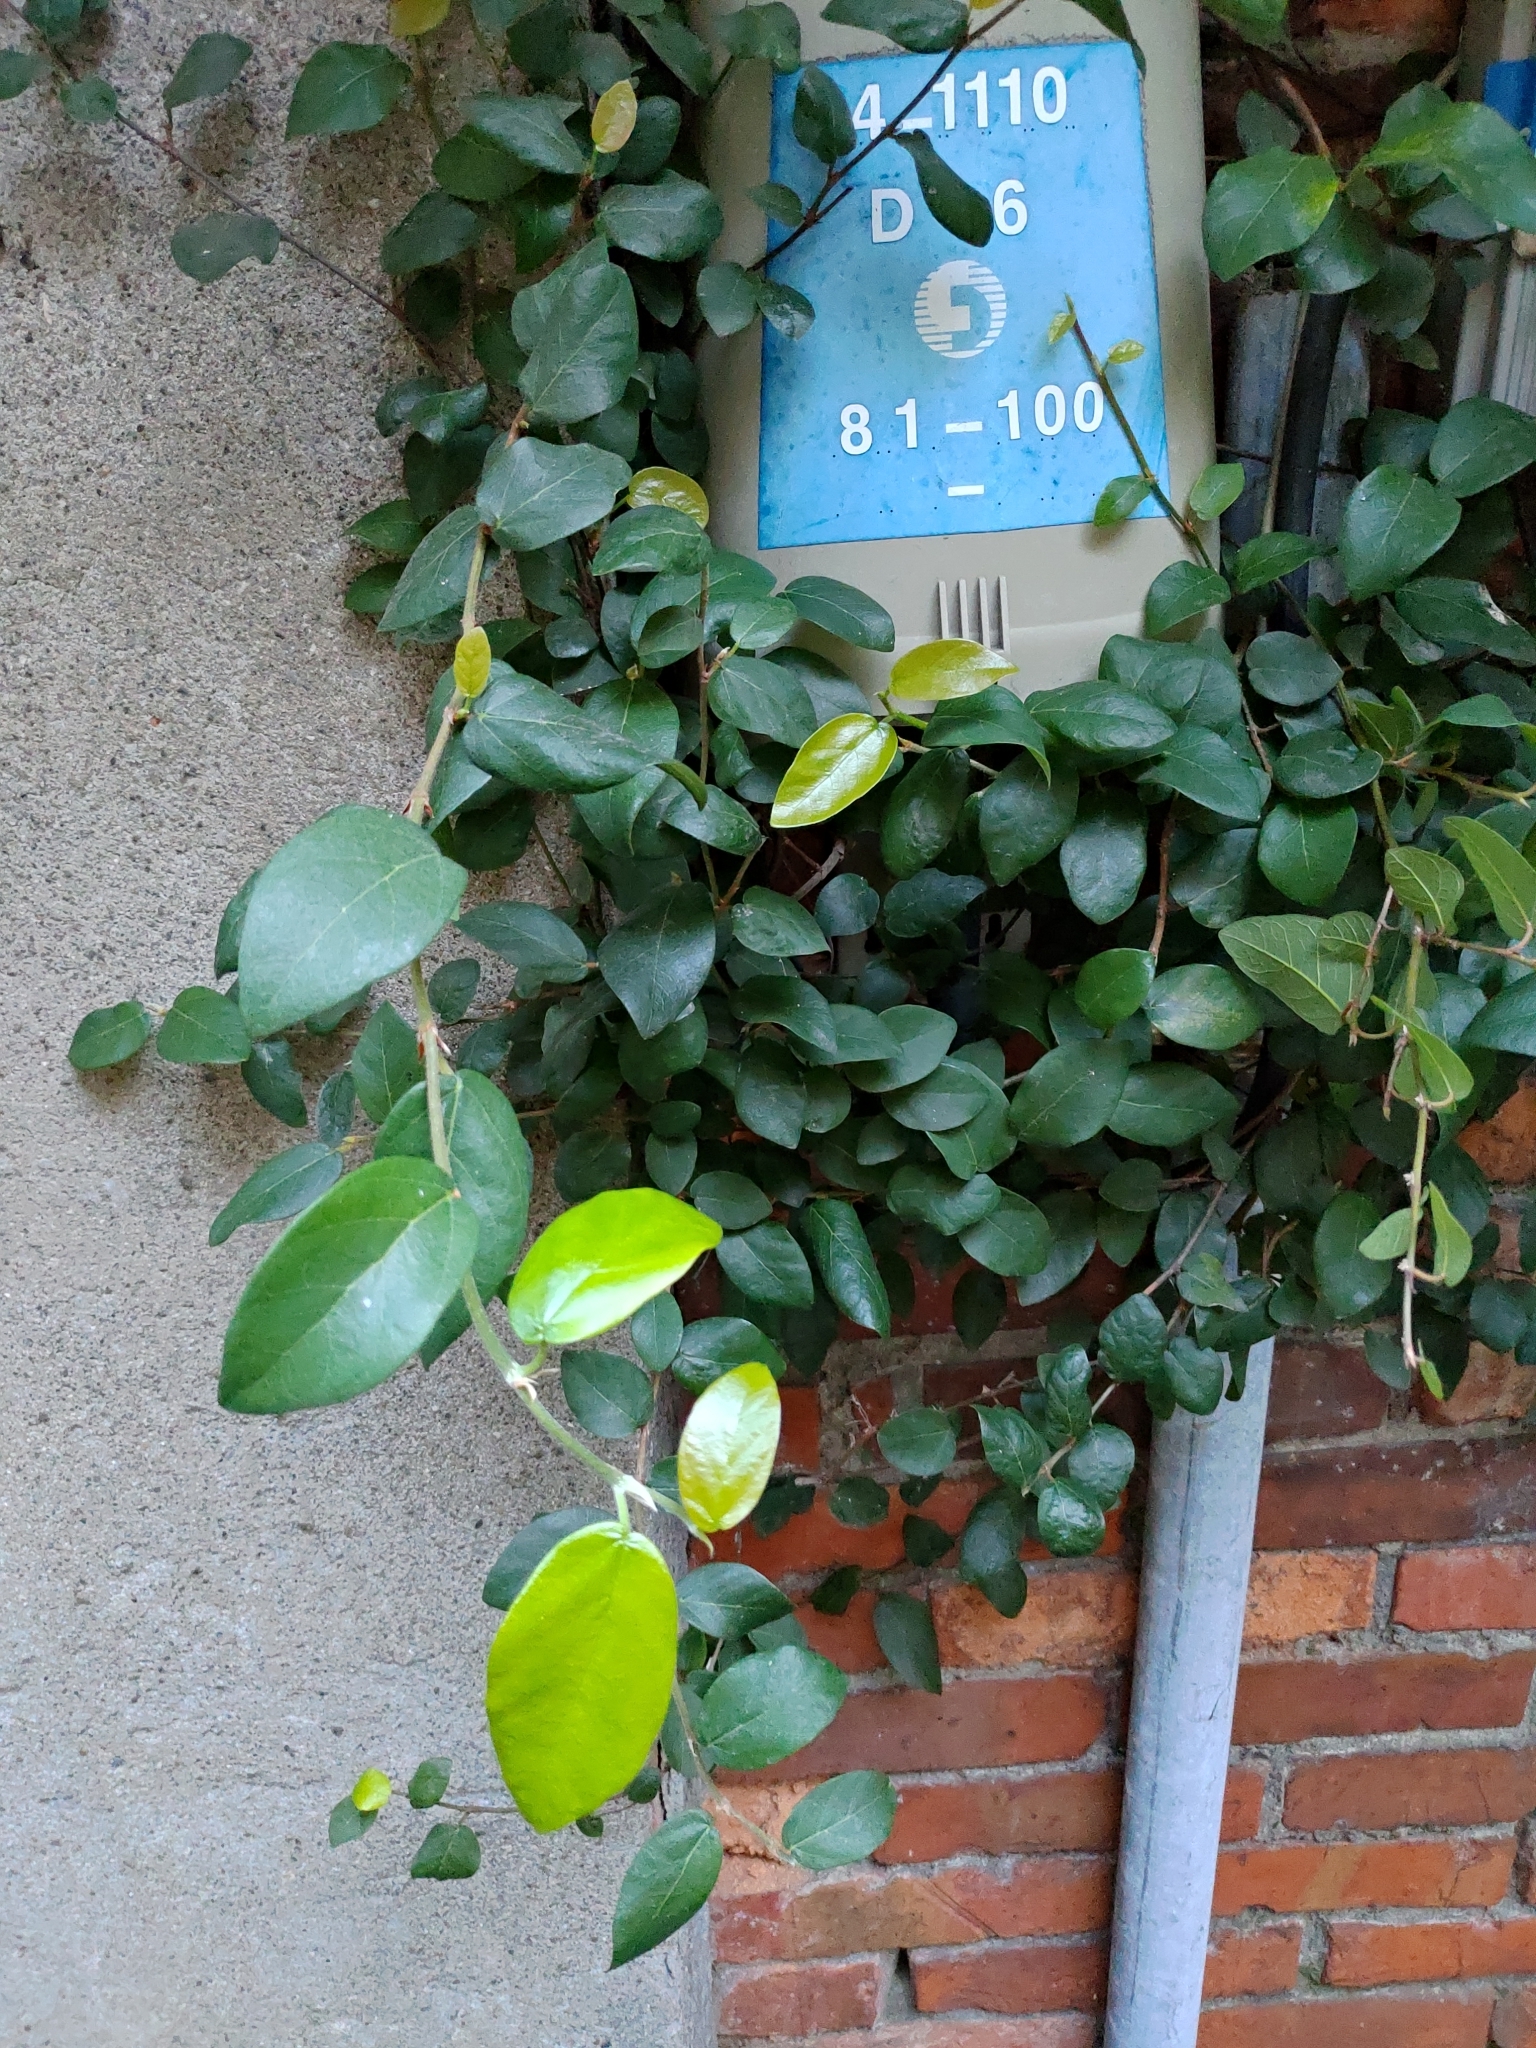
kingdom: Plantae
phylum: Tracheophyta
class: Magnoliopsida
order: Rosales
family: Moraceae
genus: Ficus
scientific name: Ficus pumila
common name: Climbingfig
